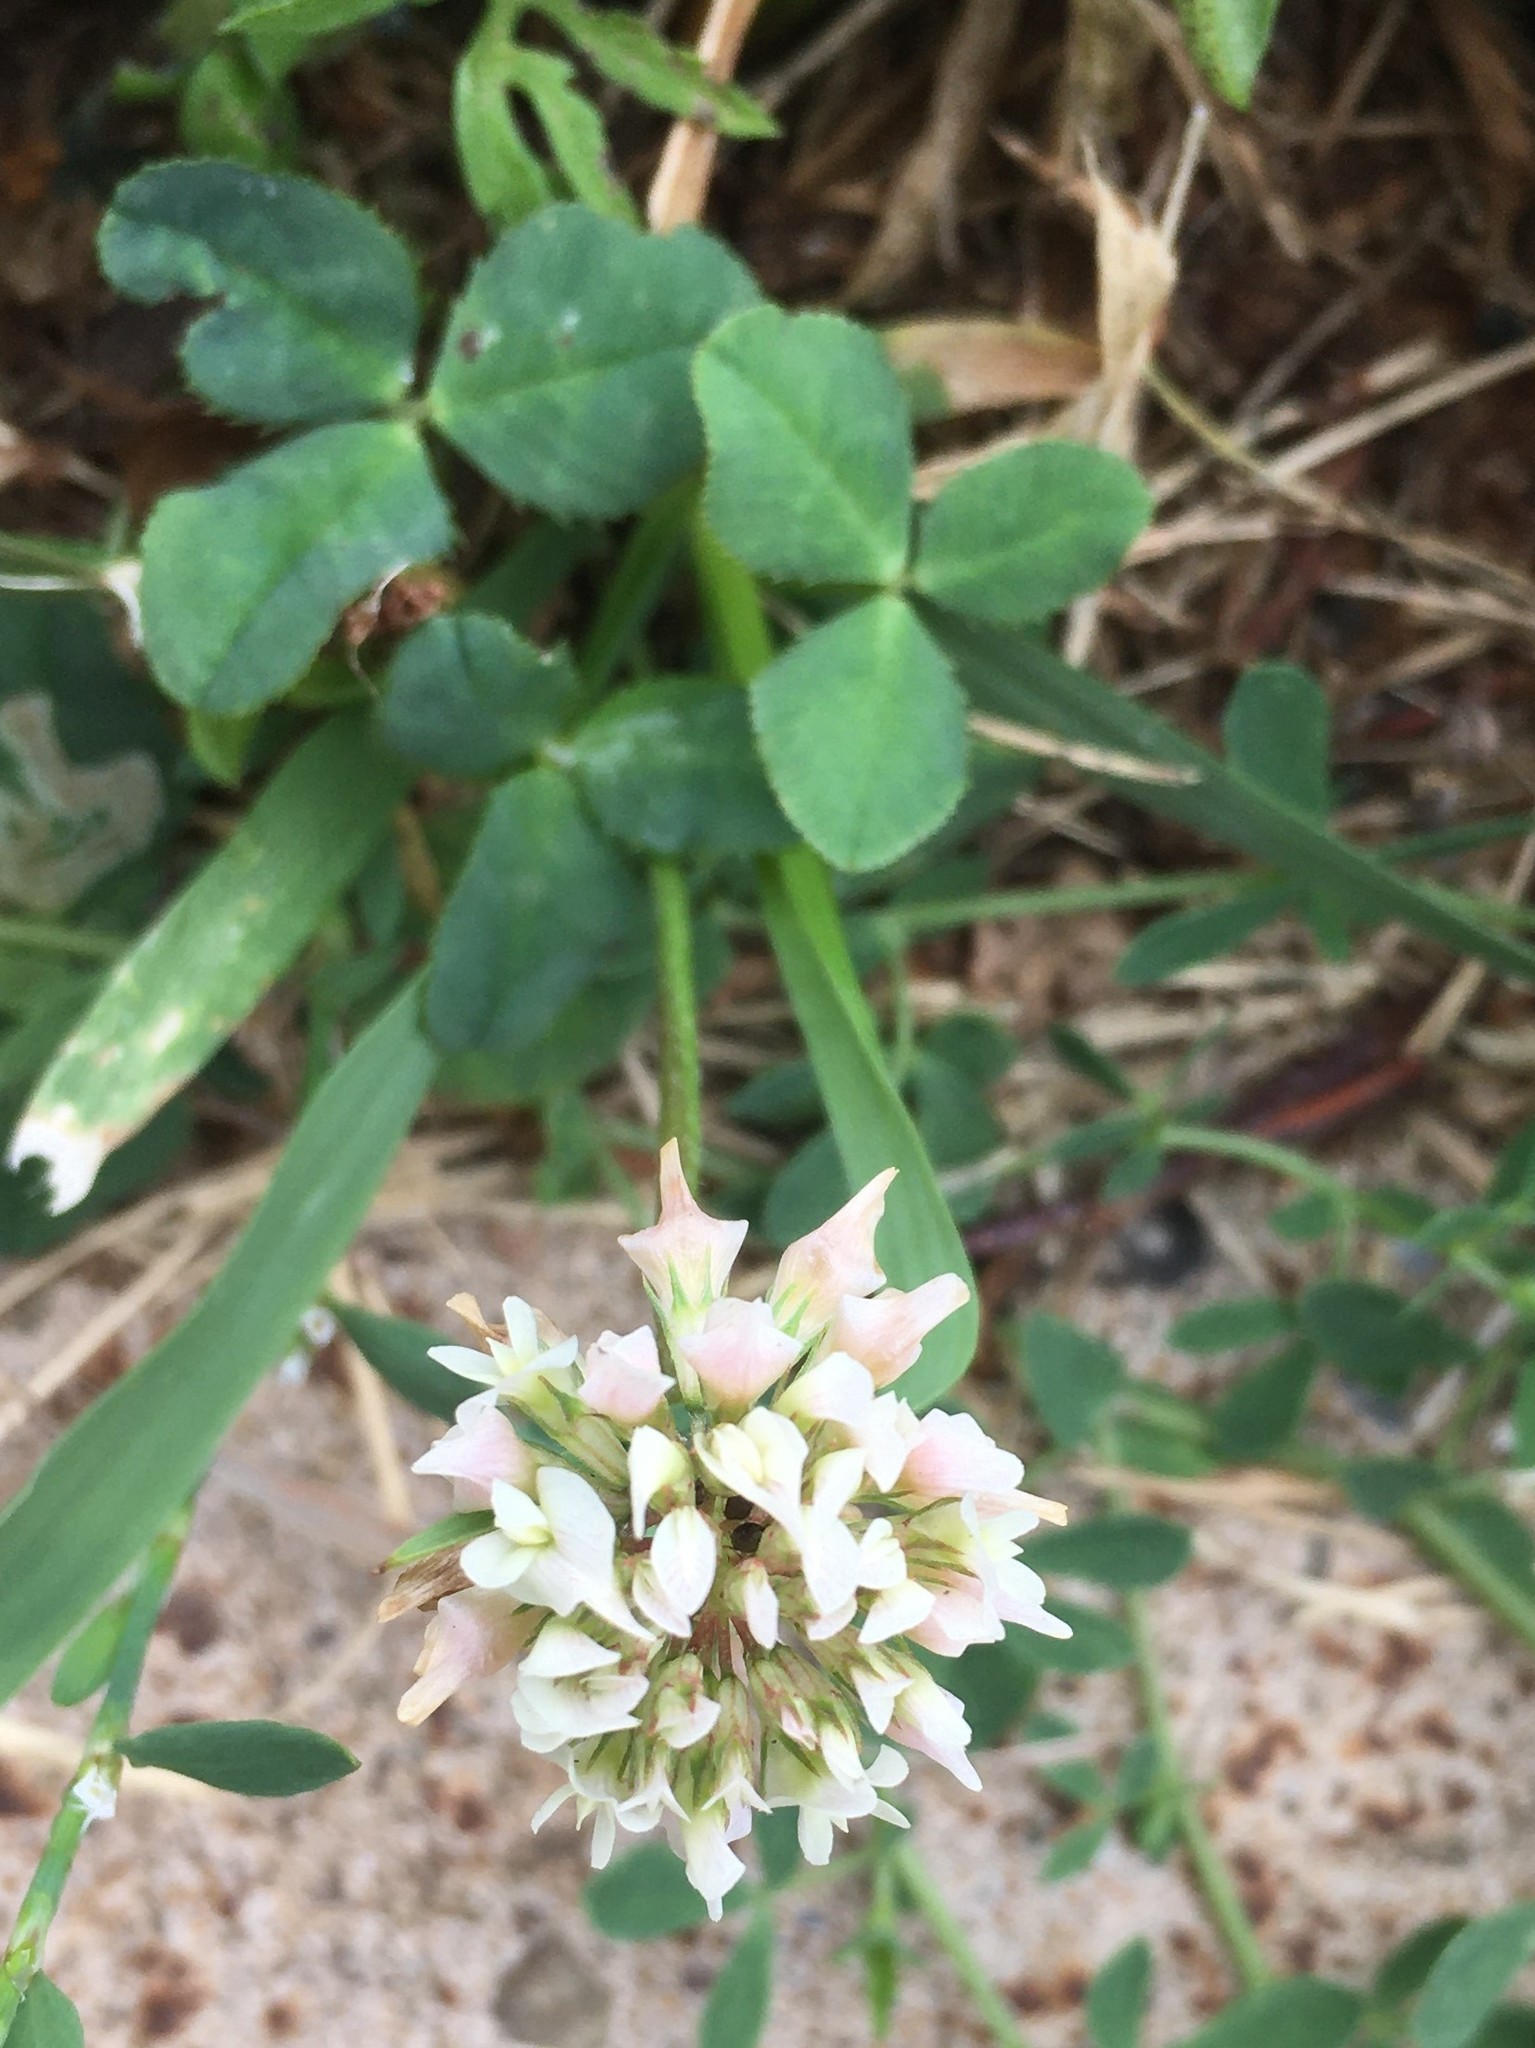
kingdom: Plantae
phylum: Tracheophyta
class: Magnoliopsida
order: Fabales
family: Fabaceae
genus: Trifolium
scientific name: Trifolium repens
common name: White clover
